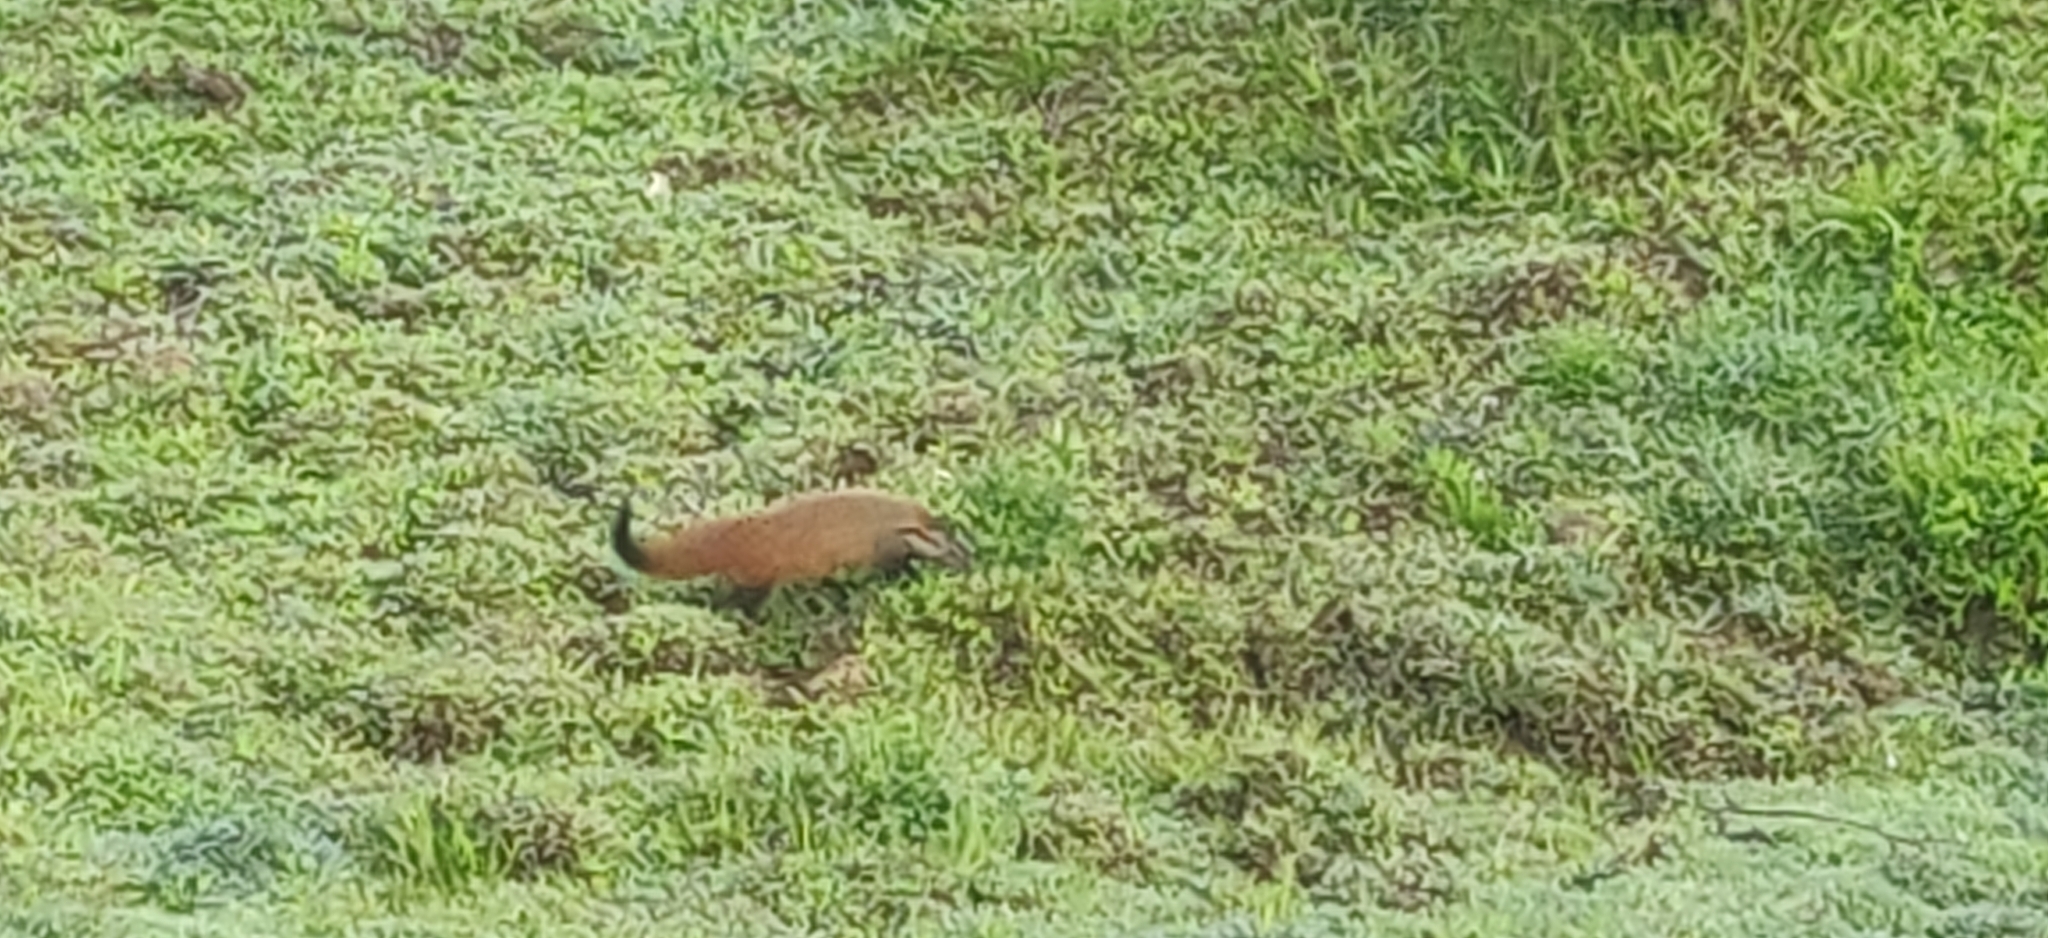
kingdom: Animalia
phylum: Chordata
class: Mammalia
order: Carnivora
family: Herpestidae
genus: Herpestes
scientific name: Herpestes vitticollis
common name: Stripe-necked mongoose
